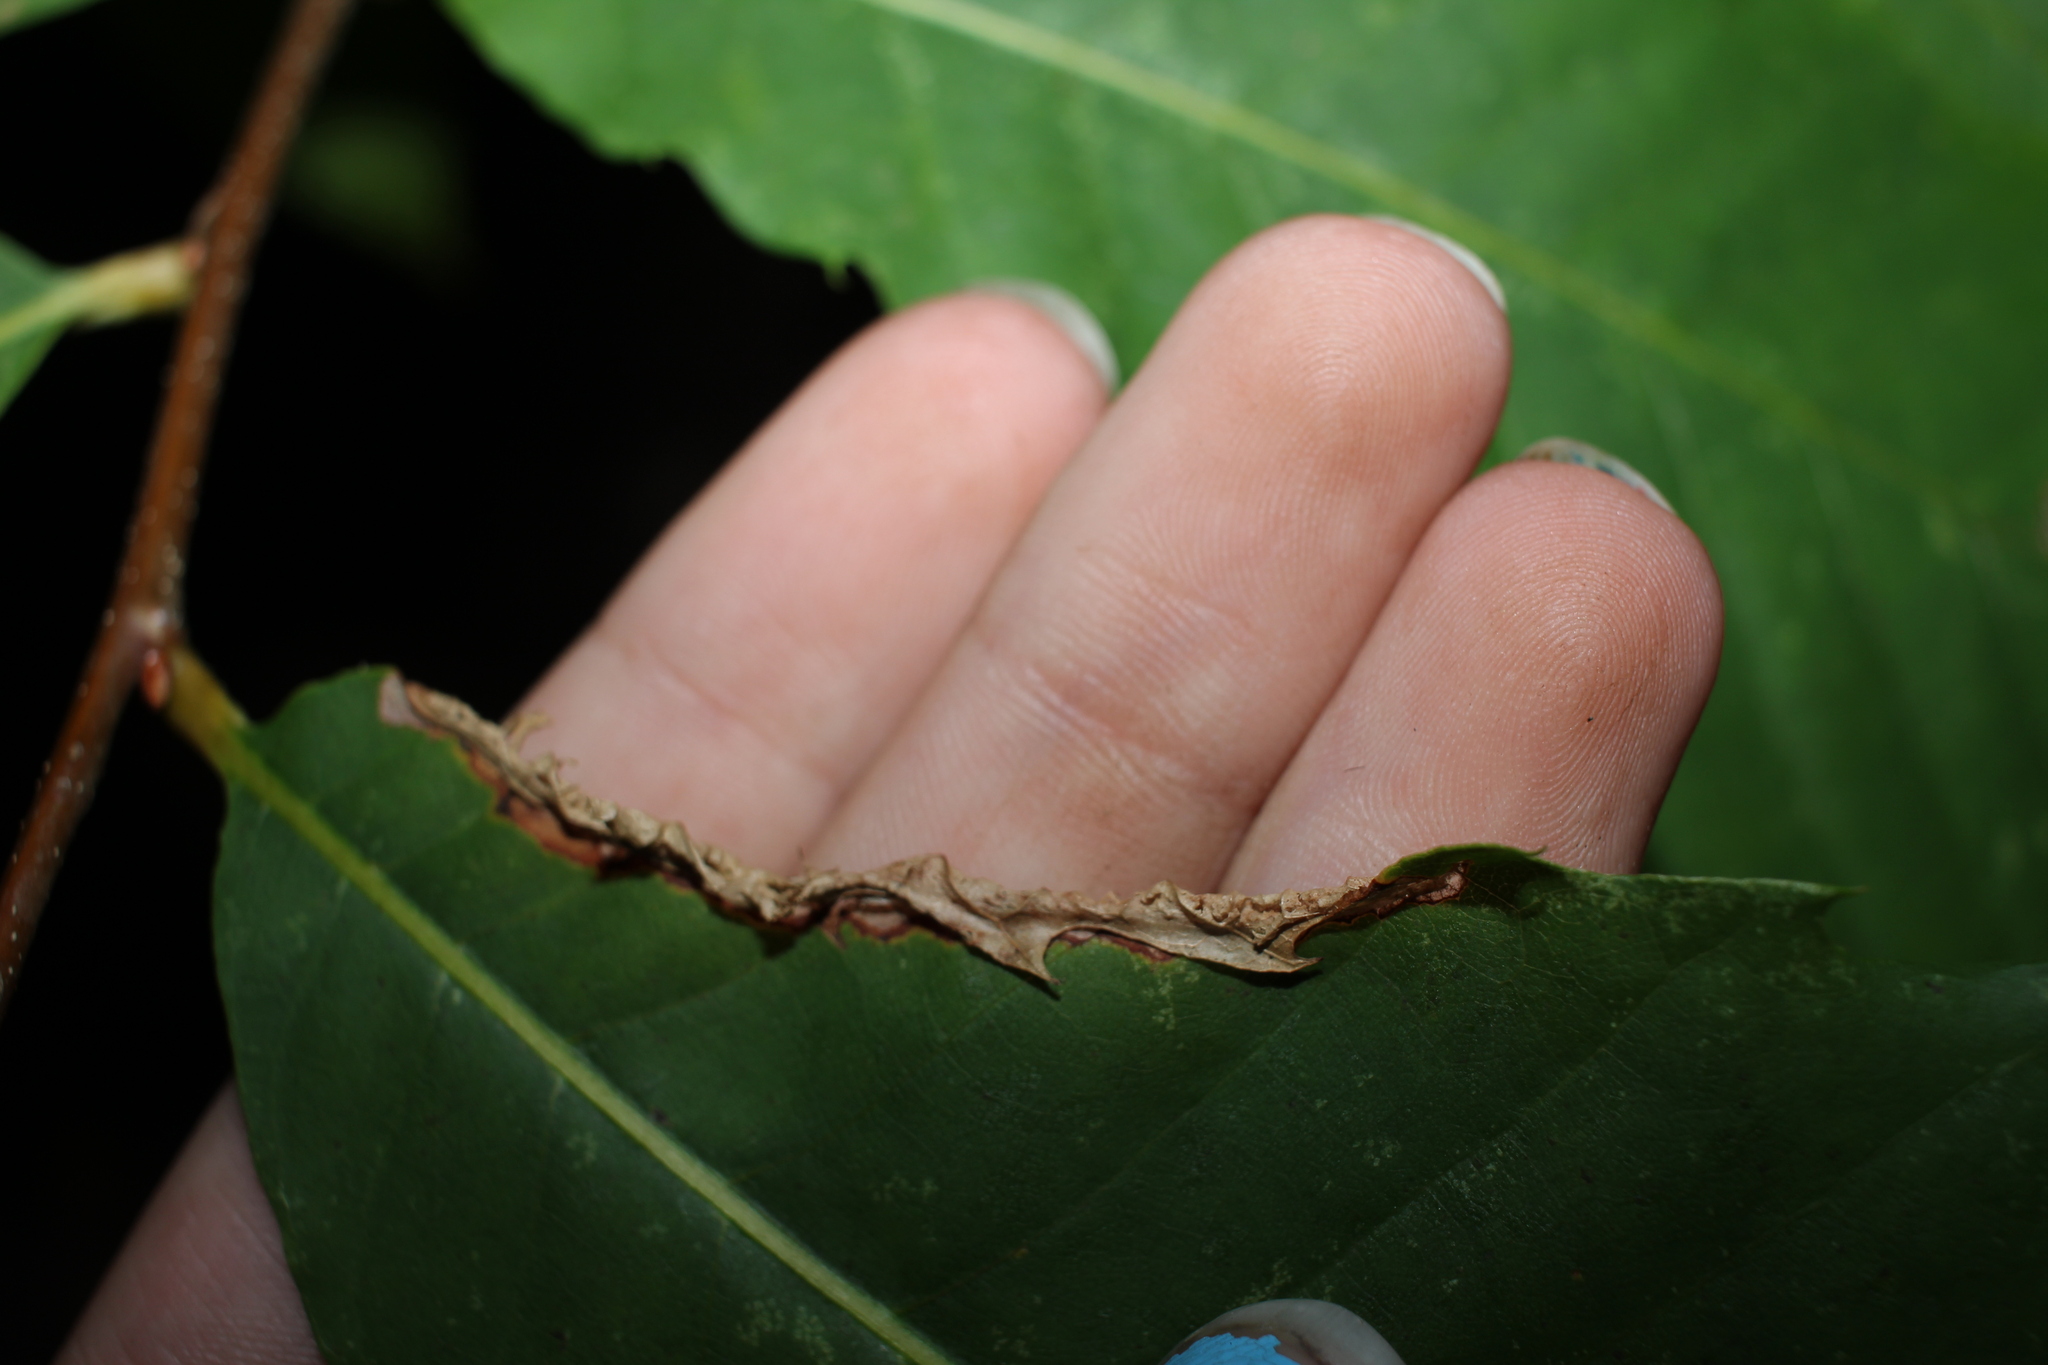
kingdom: Animalia
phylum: Arthropoda
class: Insecta
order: Lepidoptera
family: Tischeriidae
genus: Coptotriche
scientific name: Coptotriche citrinipennella
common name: The golden sweeper
